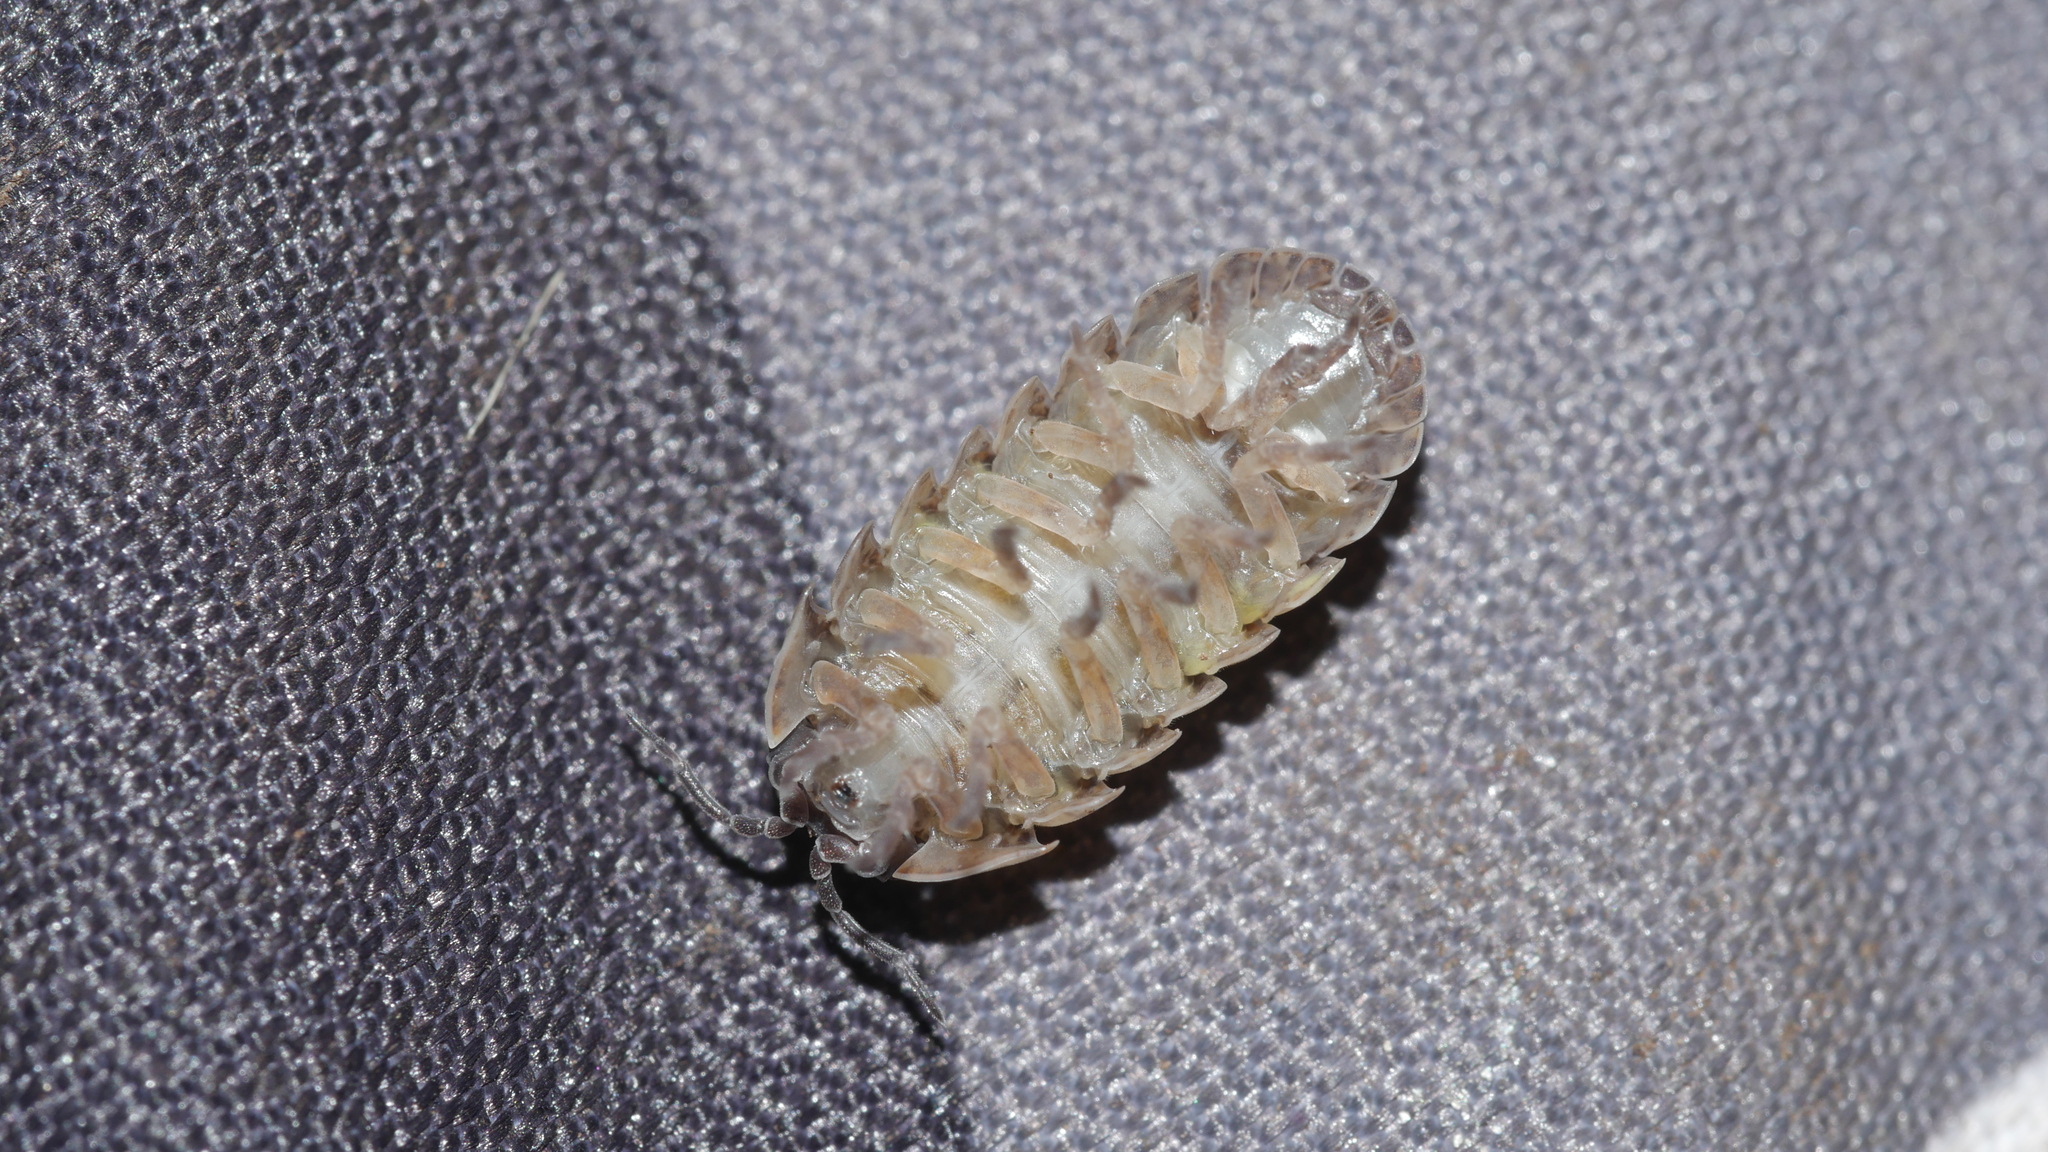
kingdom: Animalia
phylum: Arthropoda
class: Malacostraca
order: Isopoda
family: Armadillidiidae
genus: Armadillidium
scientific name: Armadillidium vulgare
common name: Common pill woodlouse
